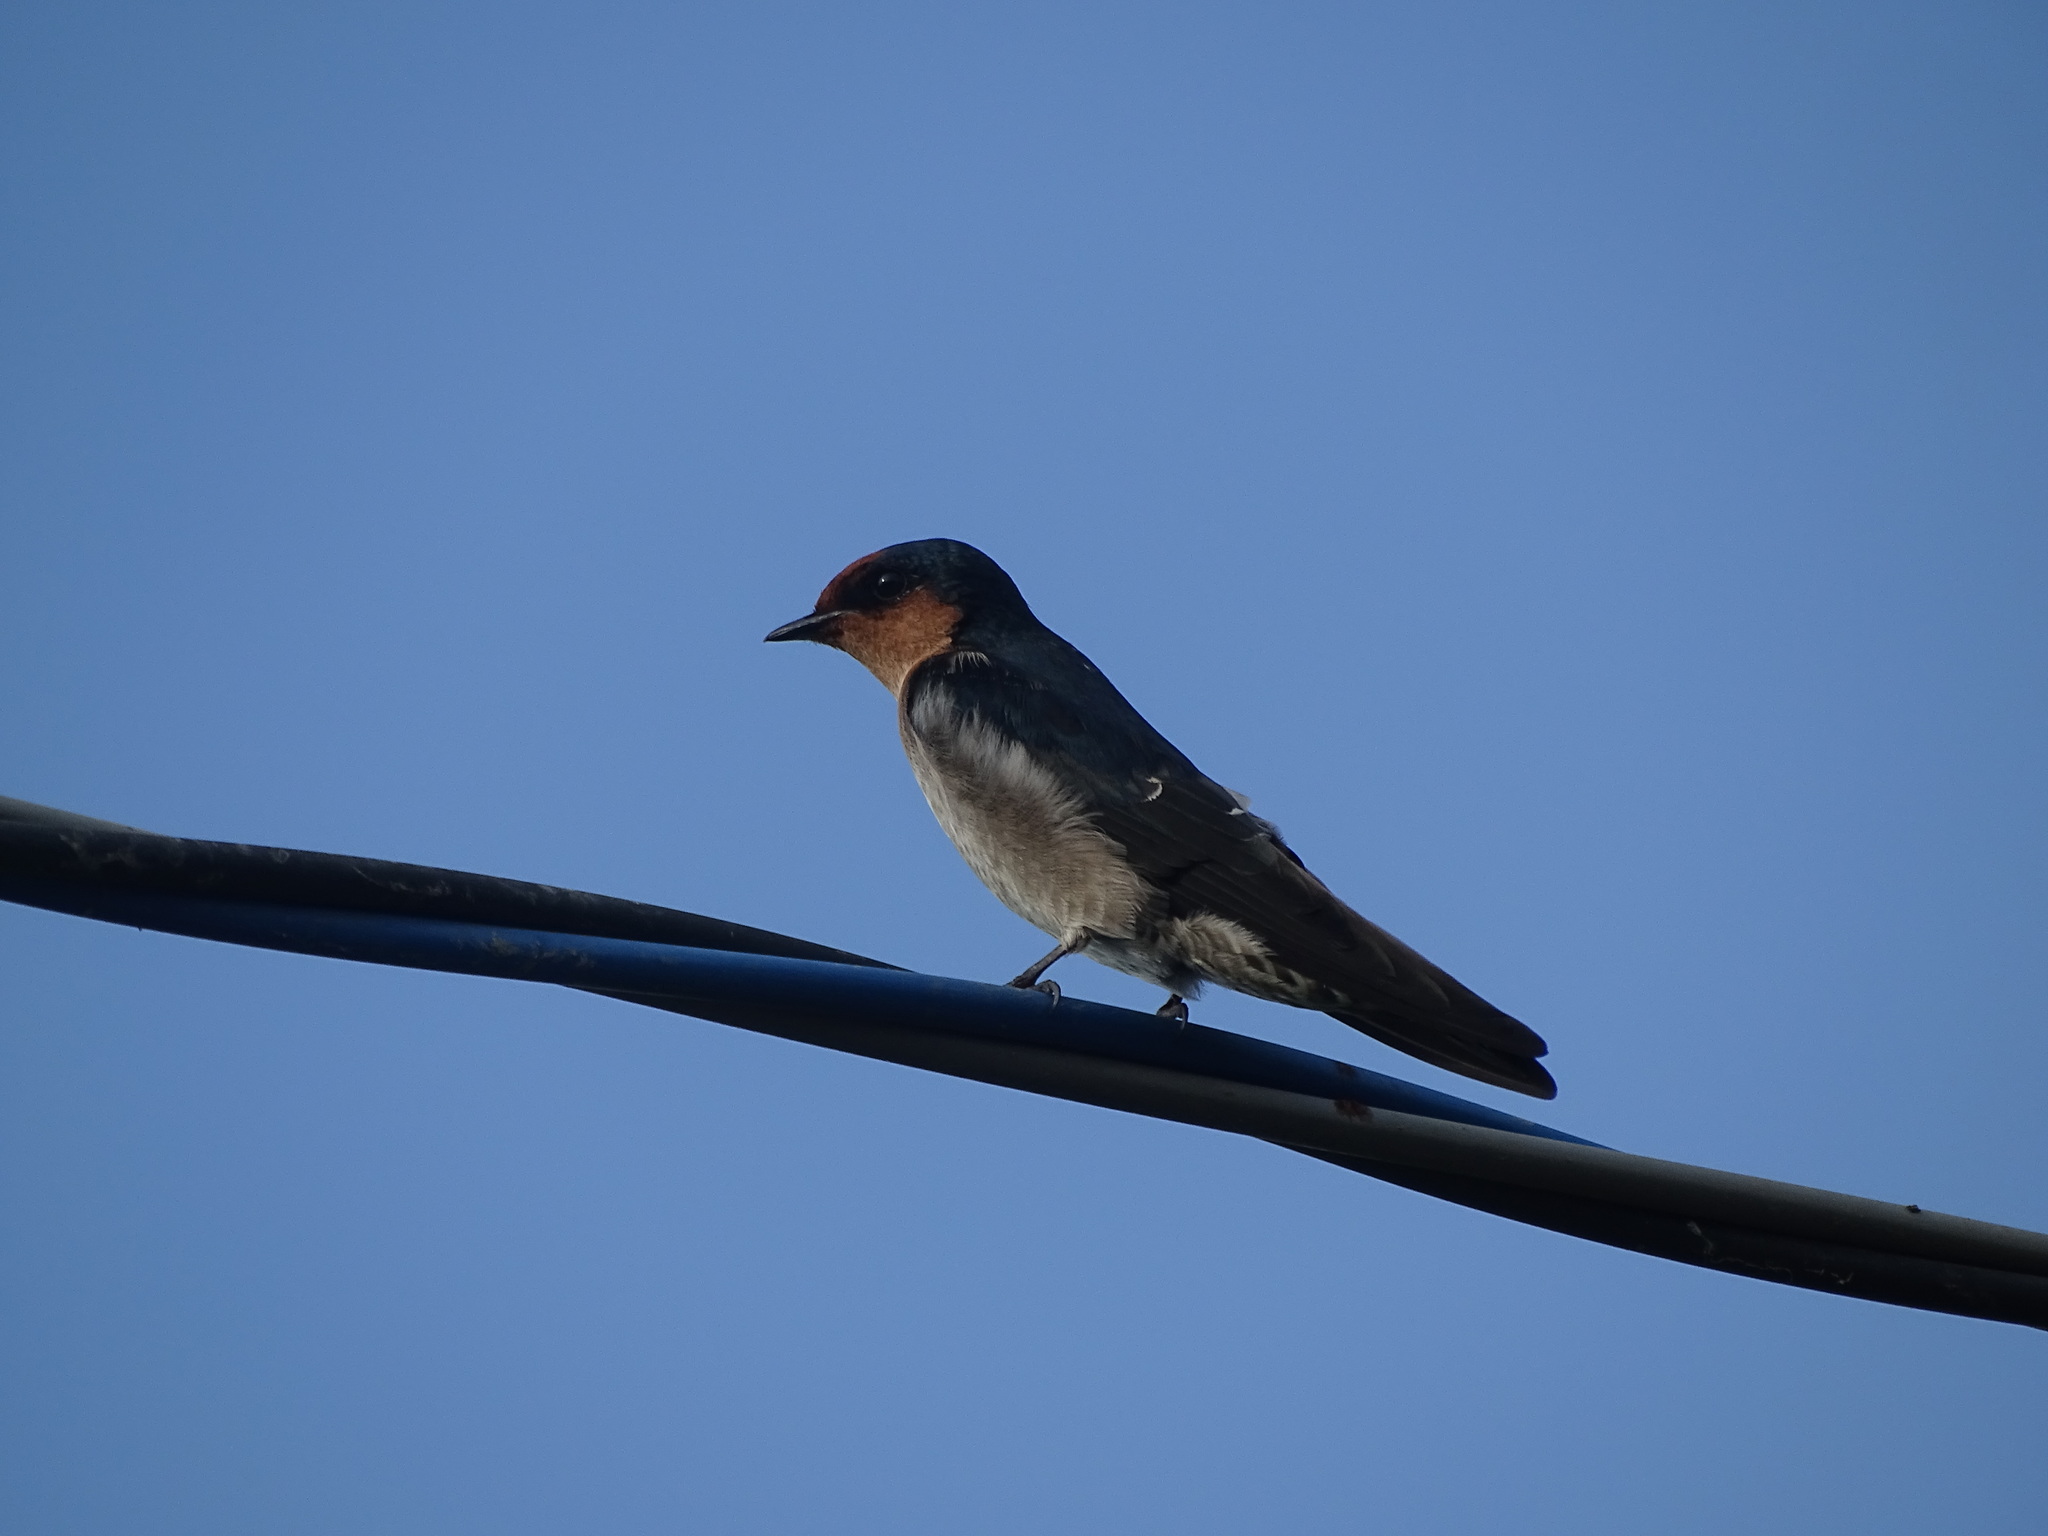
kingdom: Animalia
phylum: Chordata
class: Aves
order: Passeriformes
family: Hirundinidae
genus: Hirundo
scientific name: Hirundo tahitica
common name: Pacific swallow
